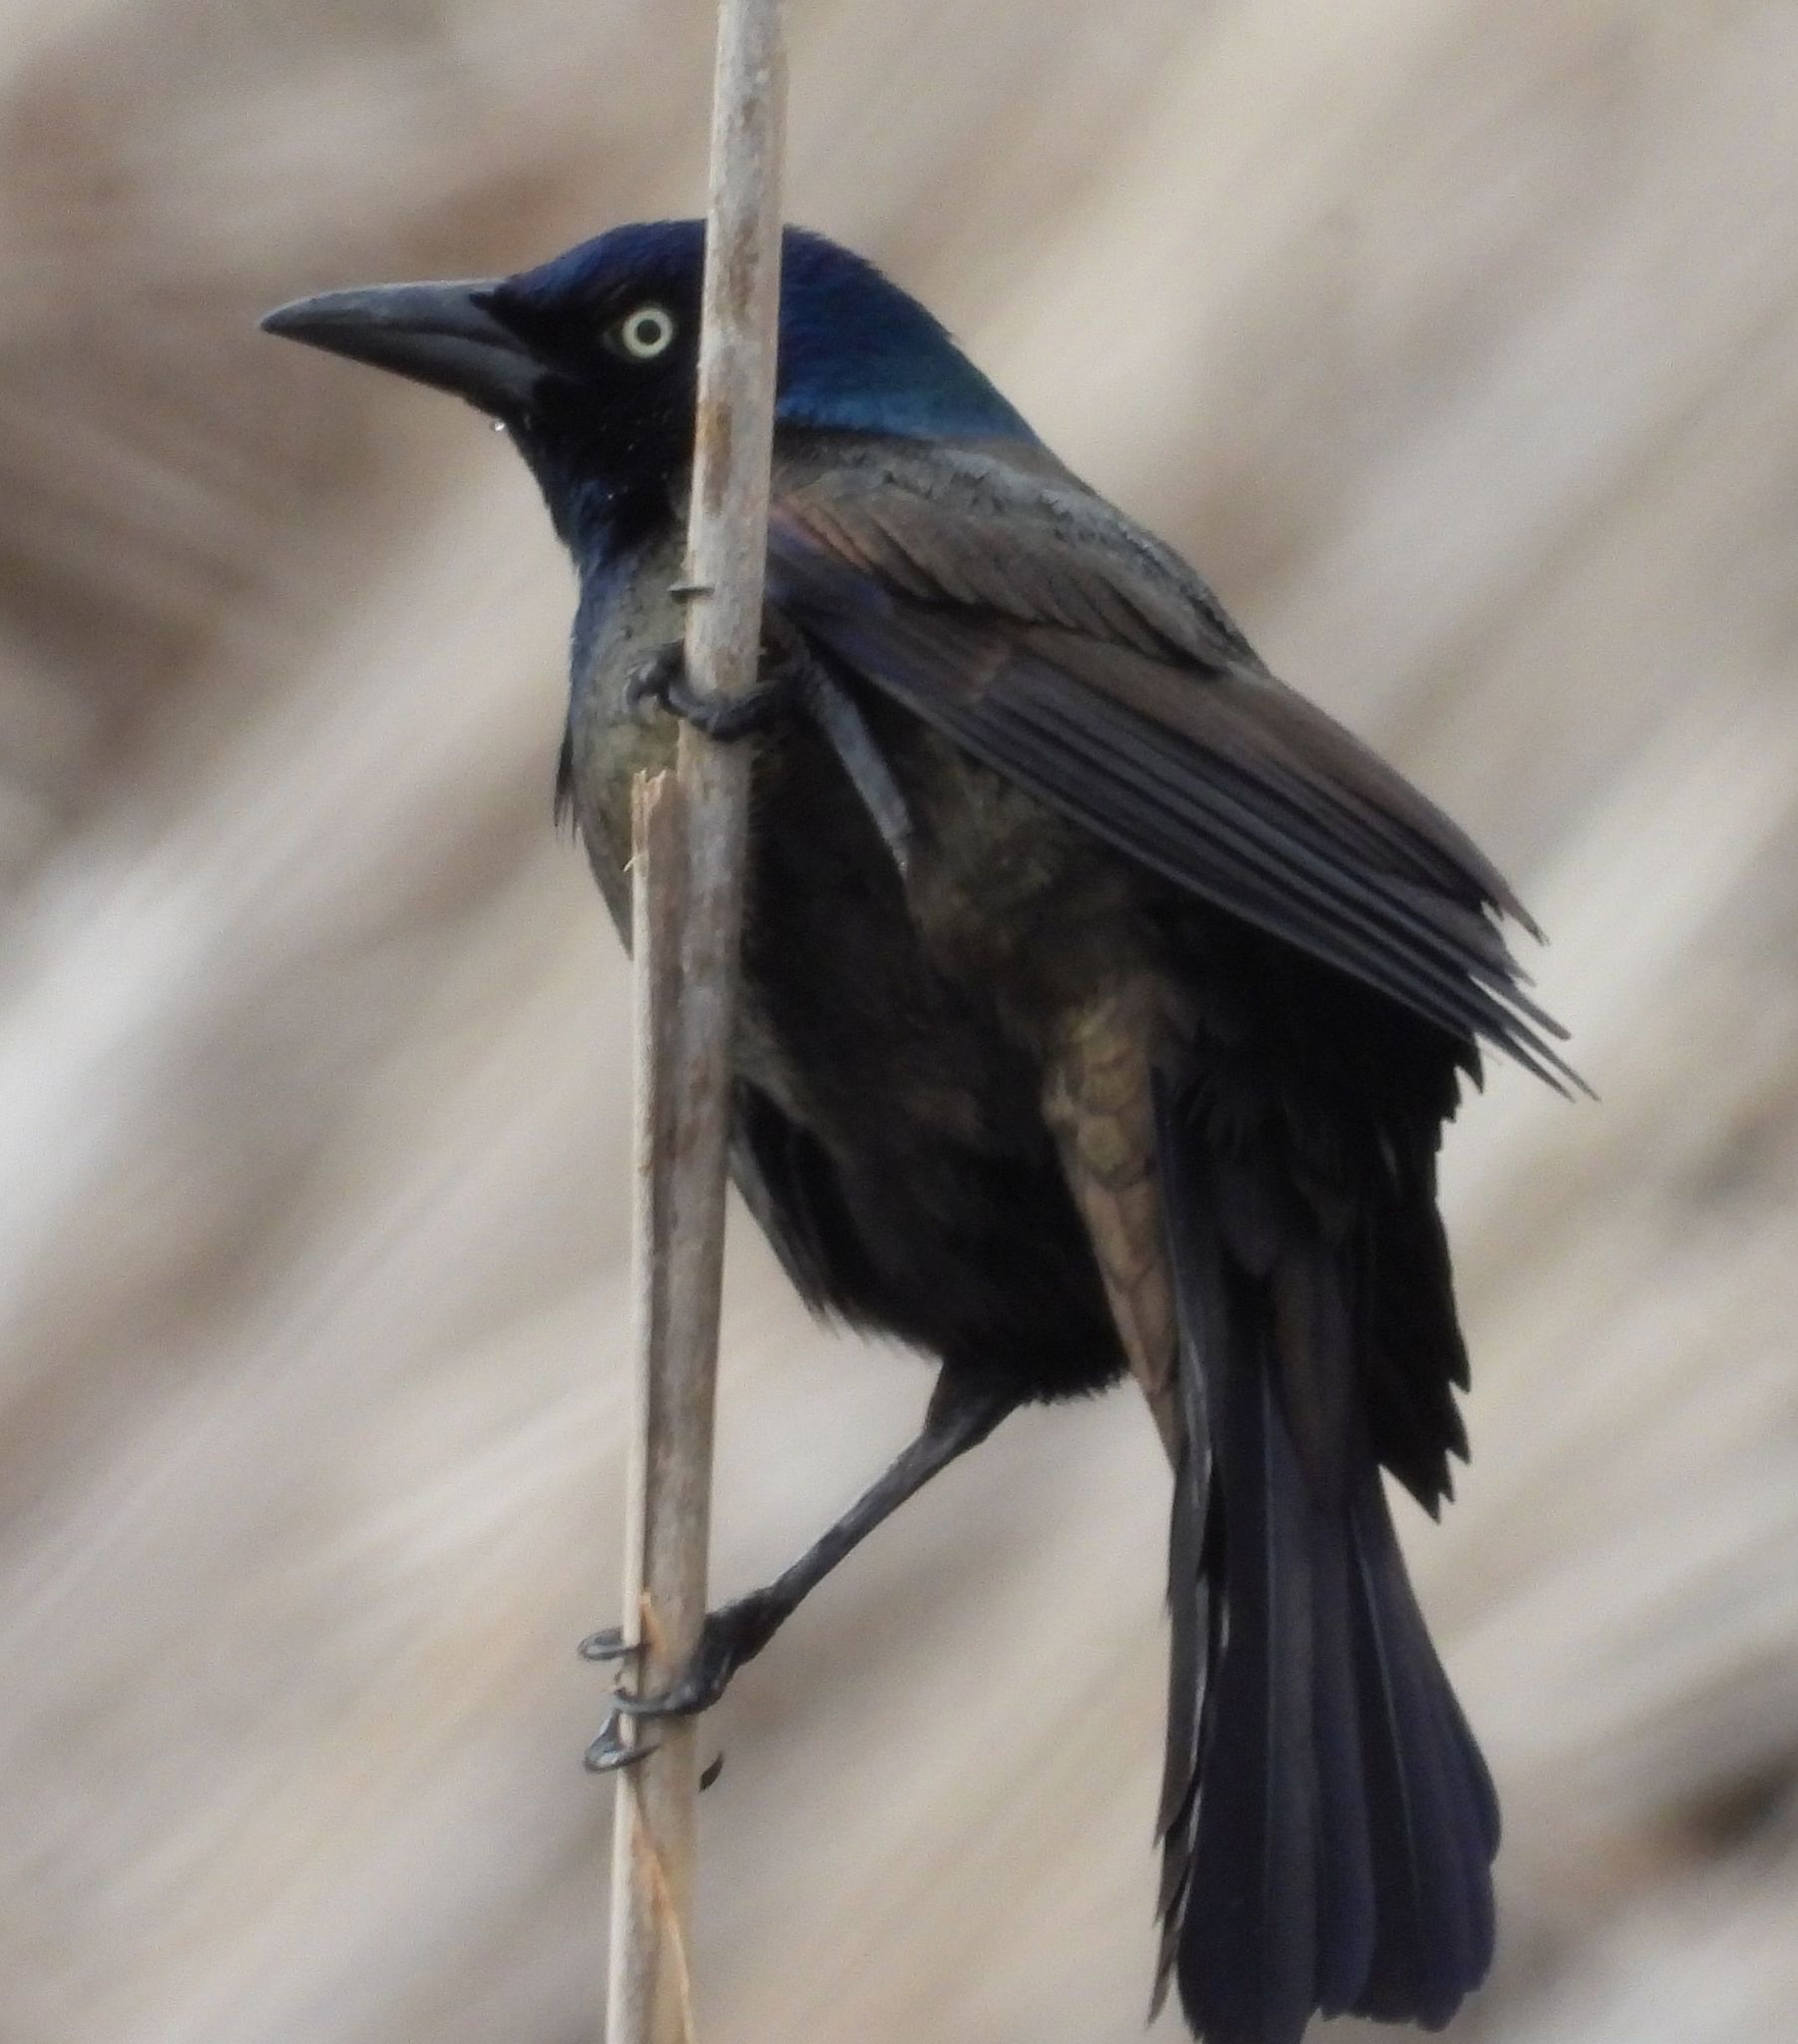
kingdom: Animalia
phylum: Chordata
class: Aves
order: Passeriformes
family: Icteridae
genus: Quiscalus
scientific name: Quiscalus quiscula
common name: Common grackle
